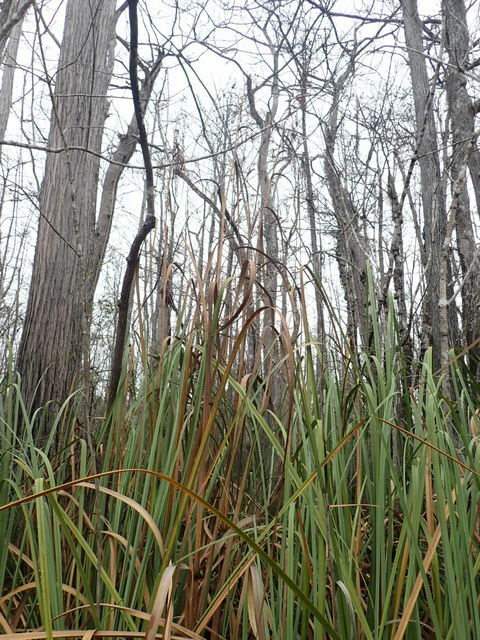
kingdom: Plantae
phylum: Tracheophyta
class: Liliopsida
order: Poales
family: Cyperaceae
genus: Cladium
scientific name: Cladium mariscus
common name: Great fen-sedge
